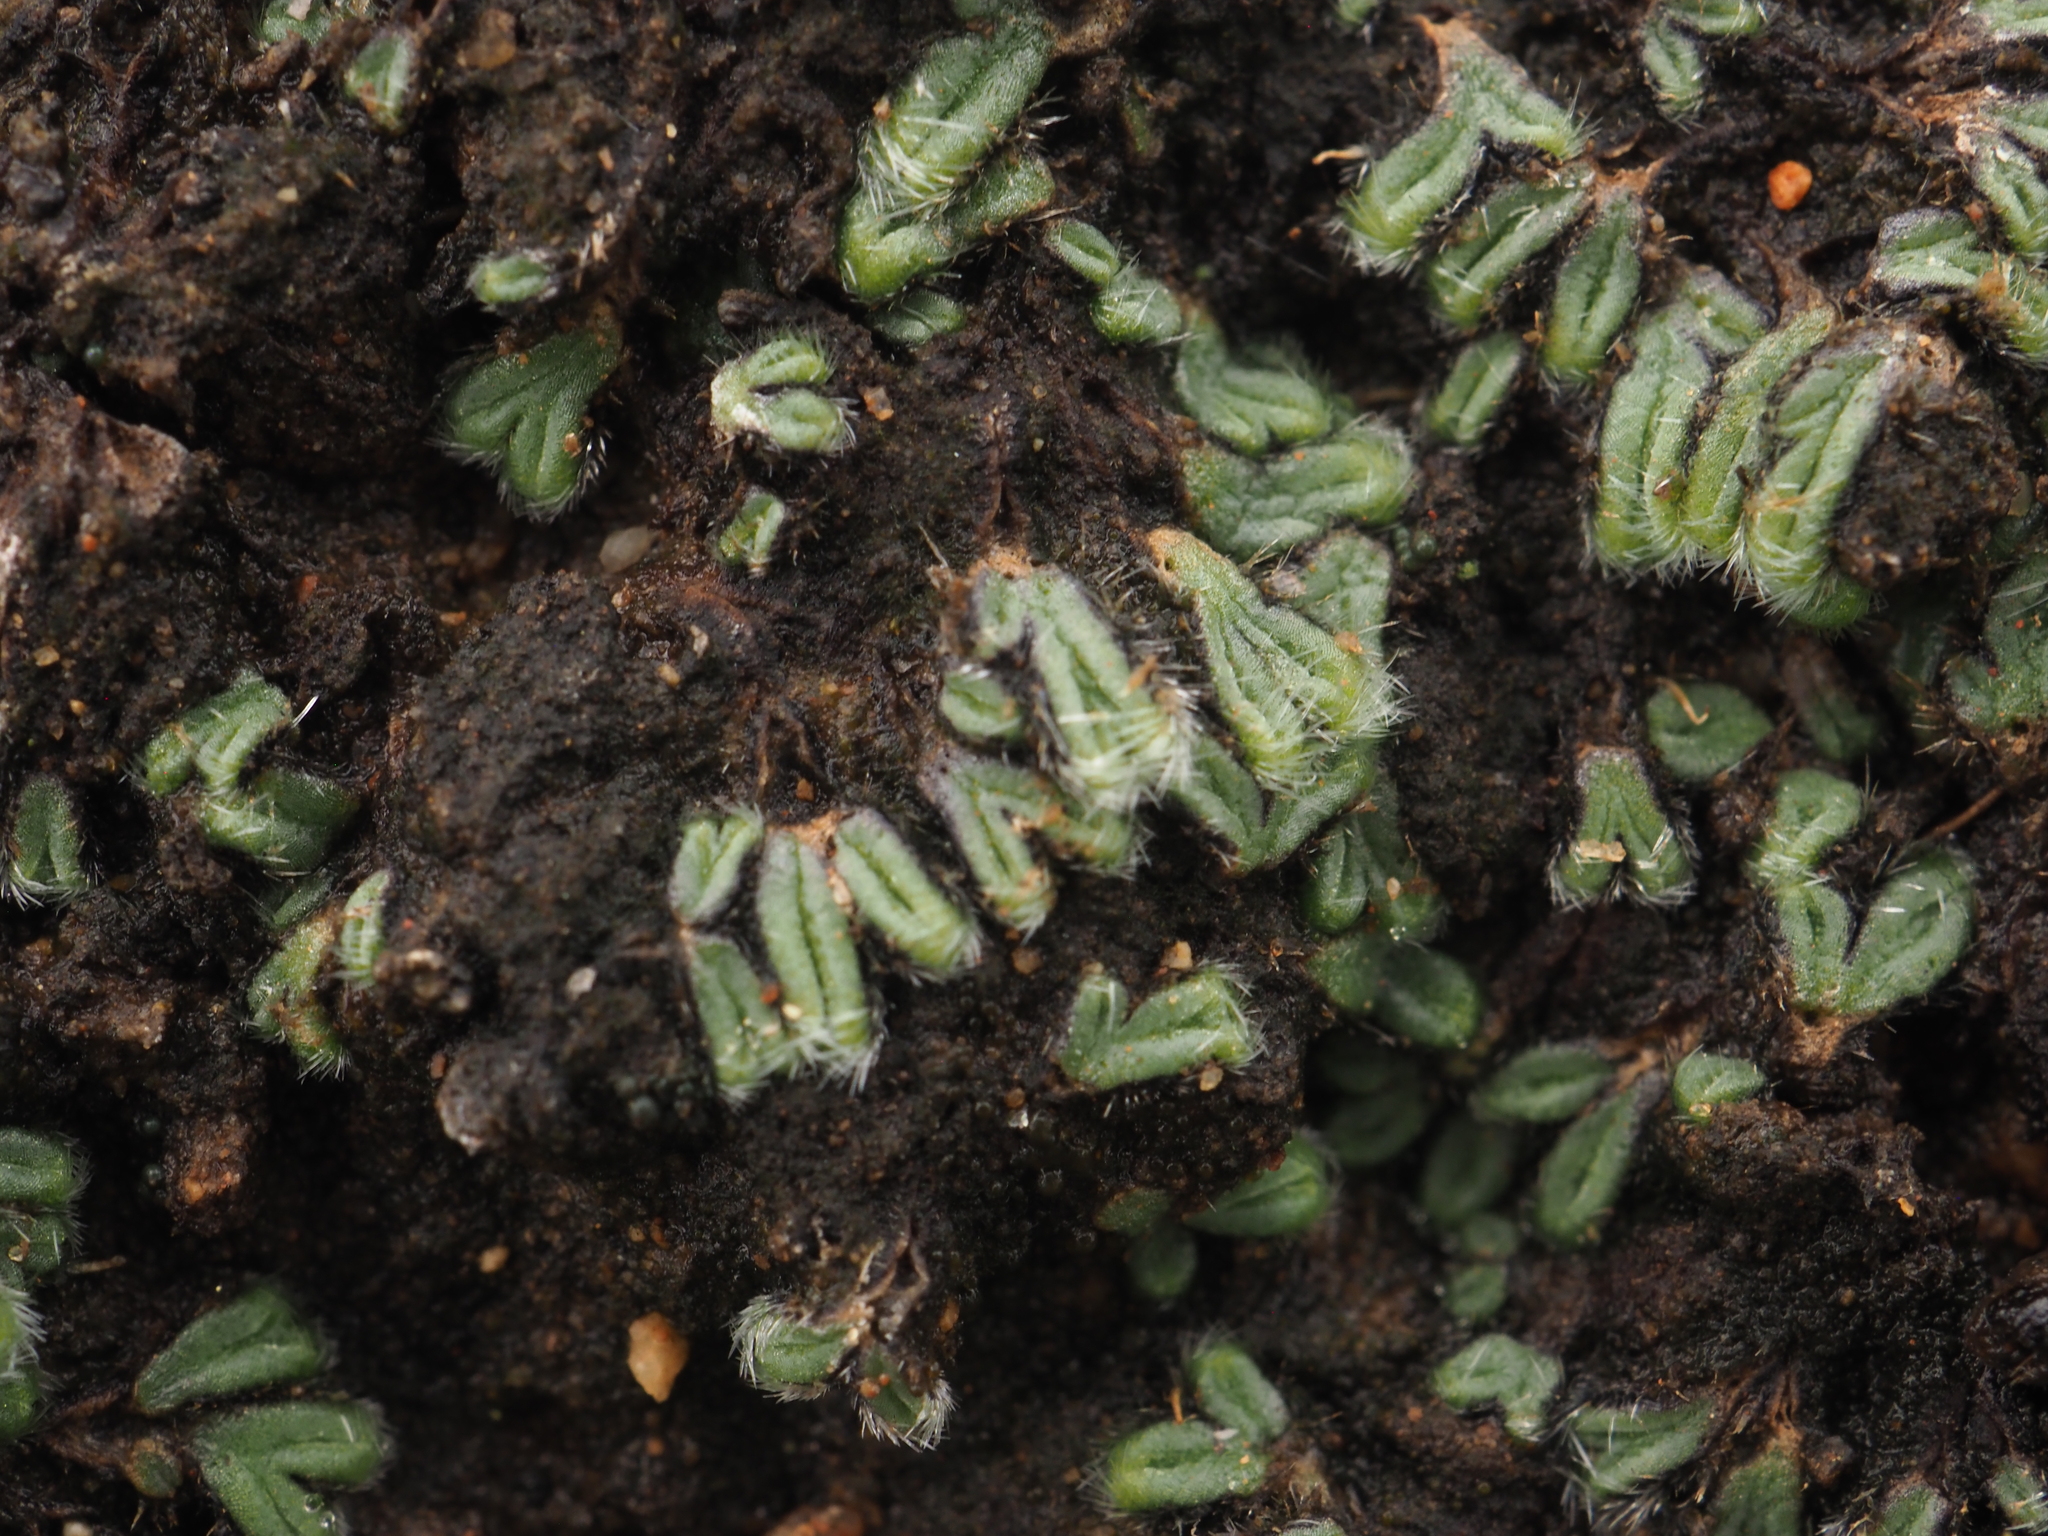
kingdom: Plantae
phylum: Marchantiophyta
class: Marchantiopsida
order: Marchantiales
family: Ricciaceae
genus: Riccia
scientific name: Riccia crinita
